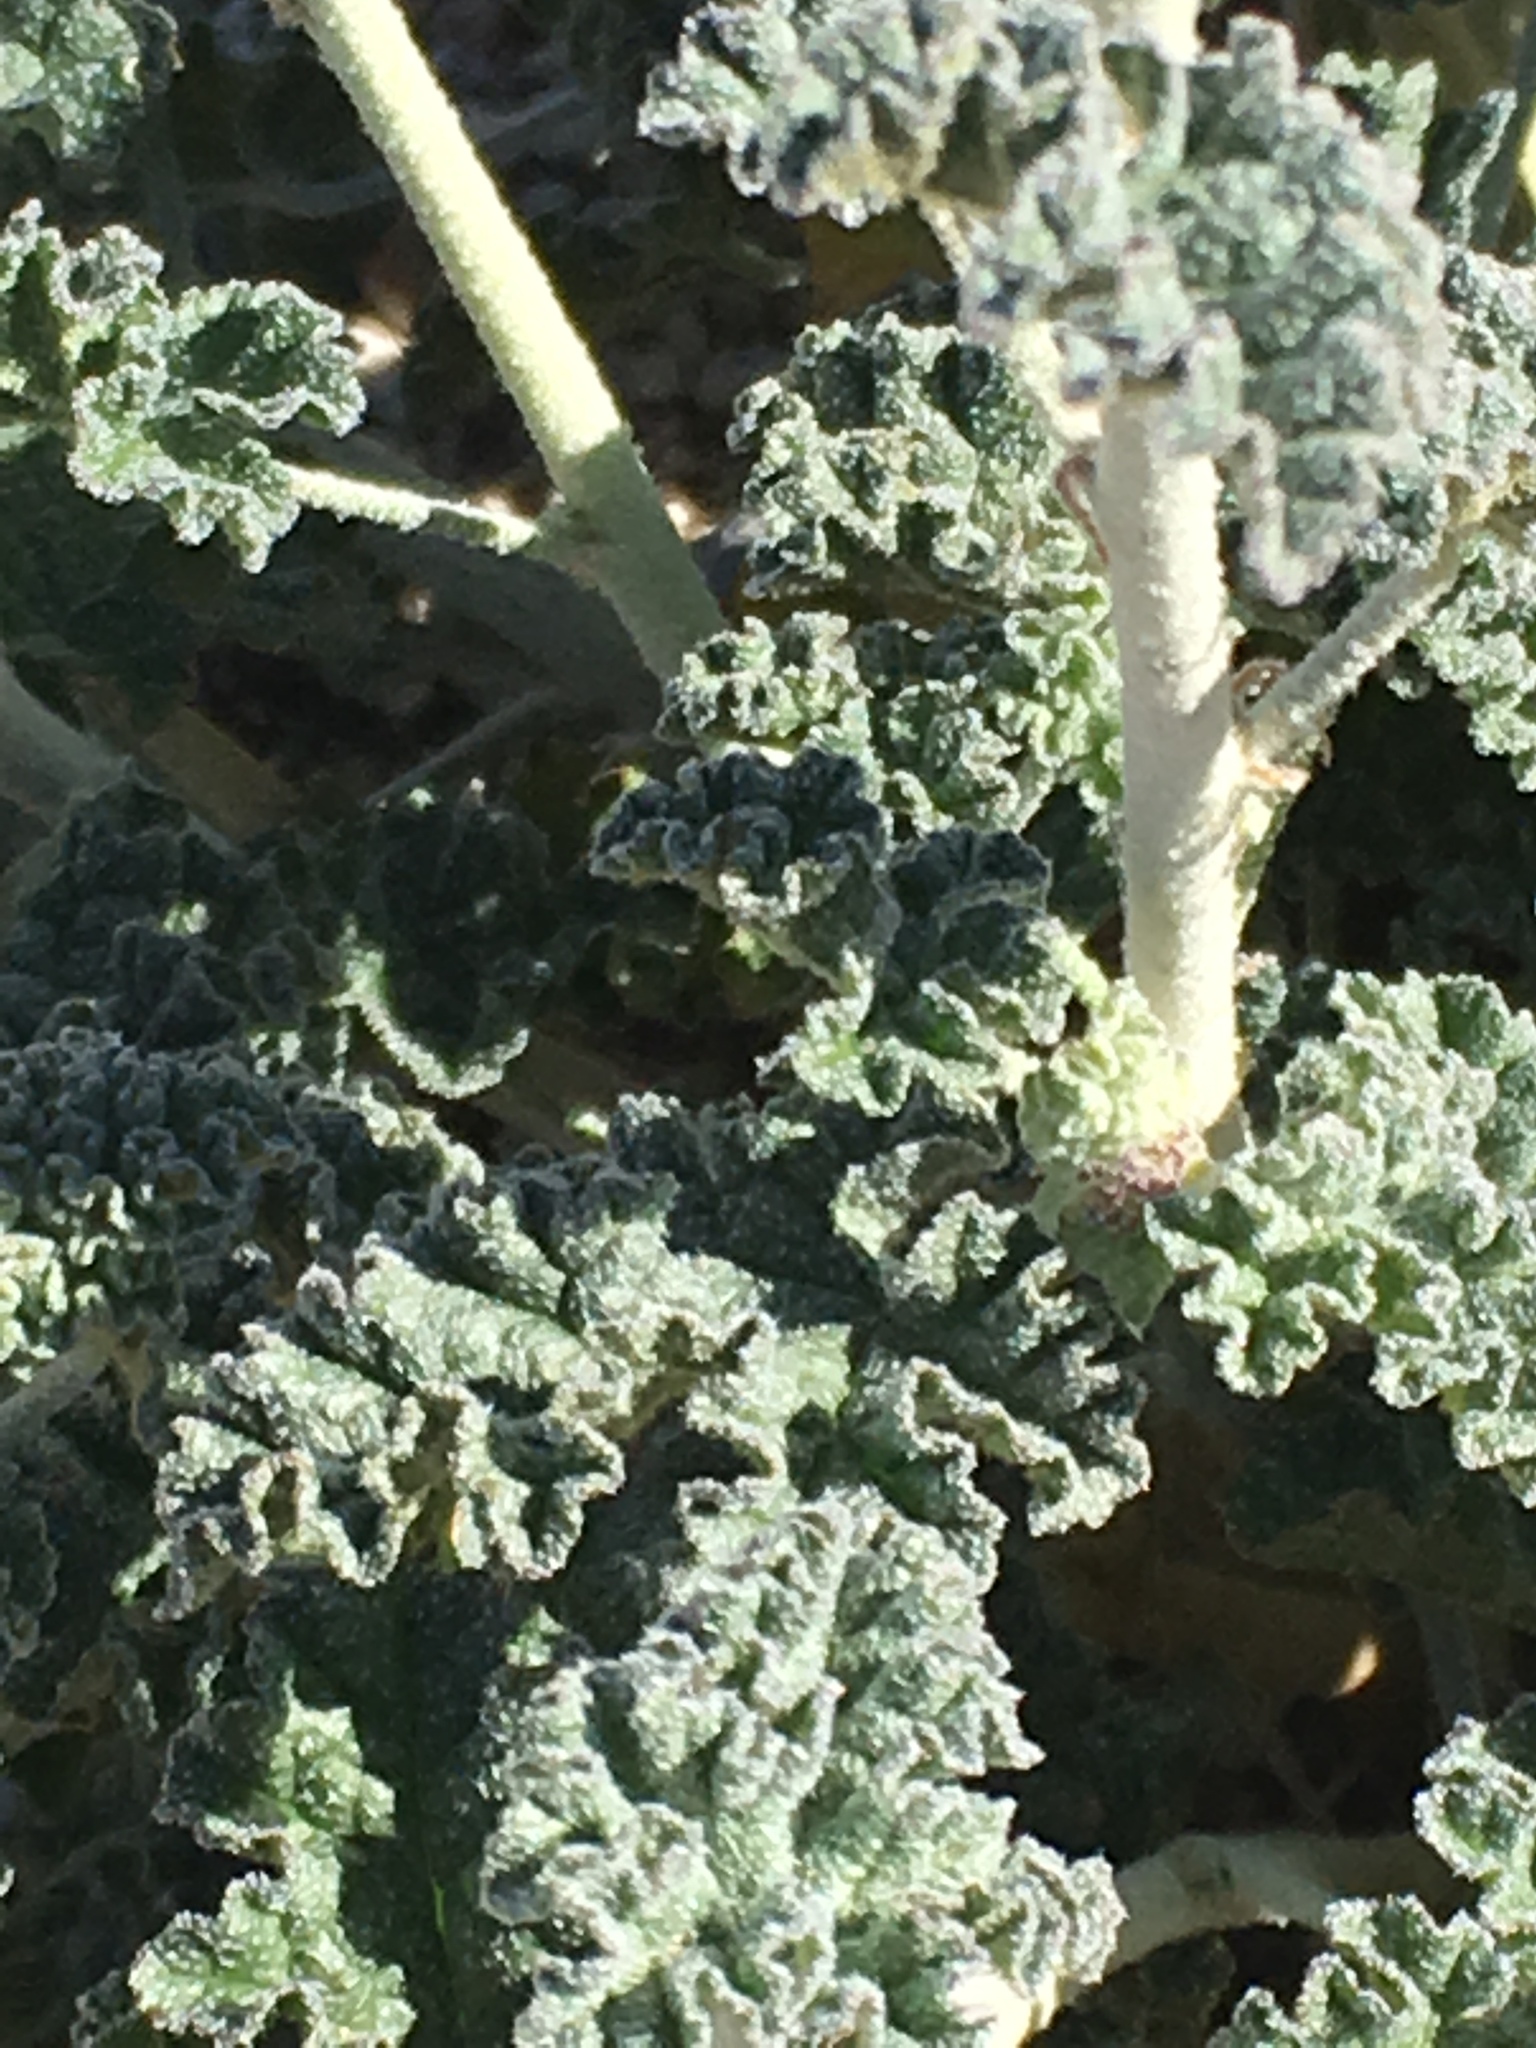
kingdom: Plantae
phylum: Tracheophyta
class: Magnoliopsida
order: Malvales
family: Malvaceae
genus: Sphaeralcea
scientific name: Sphaeralcea ambigua
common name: Apricot globe-mallow
